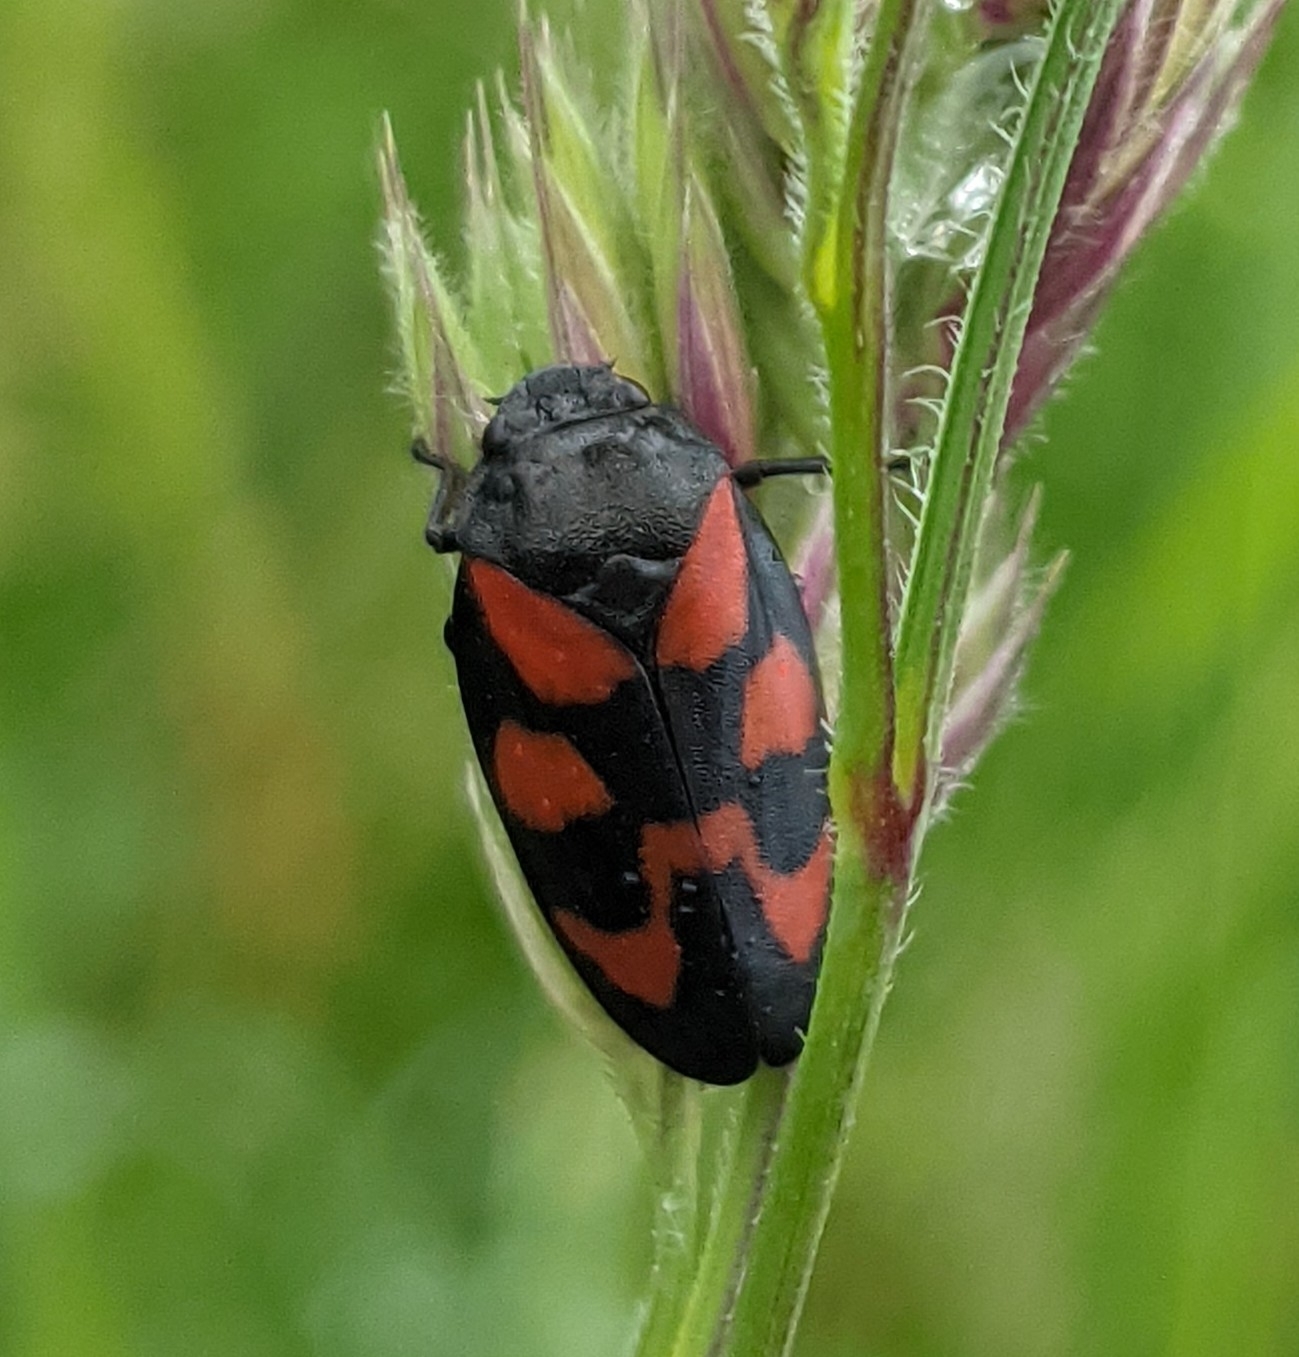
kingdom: Animalia
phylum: Arthropoda
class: Insecta
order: Hemiptera
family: Cercopidae
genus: Cercopis
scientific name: Cercopis vulnerata
